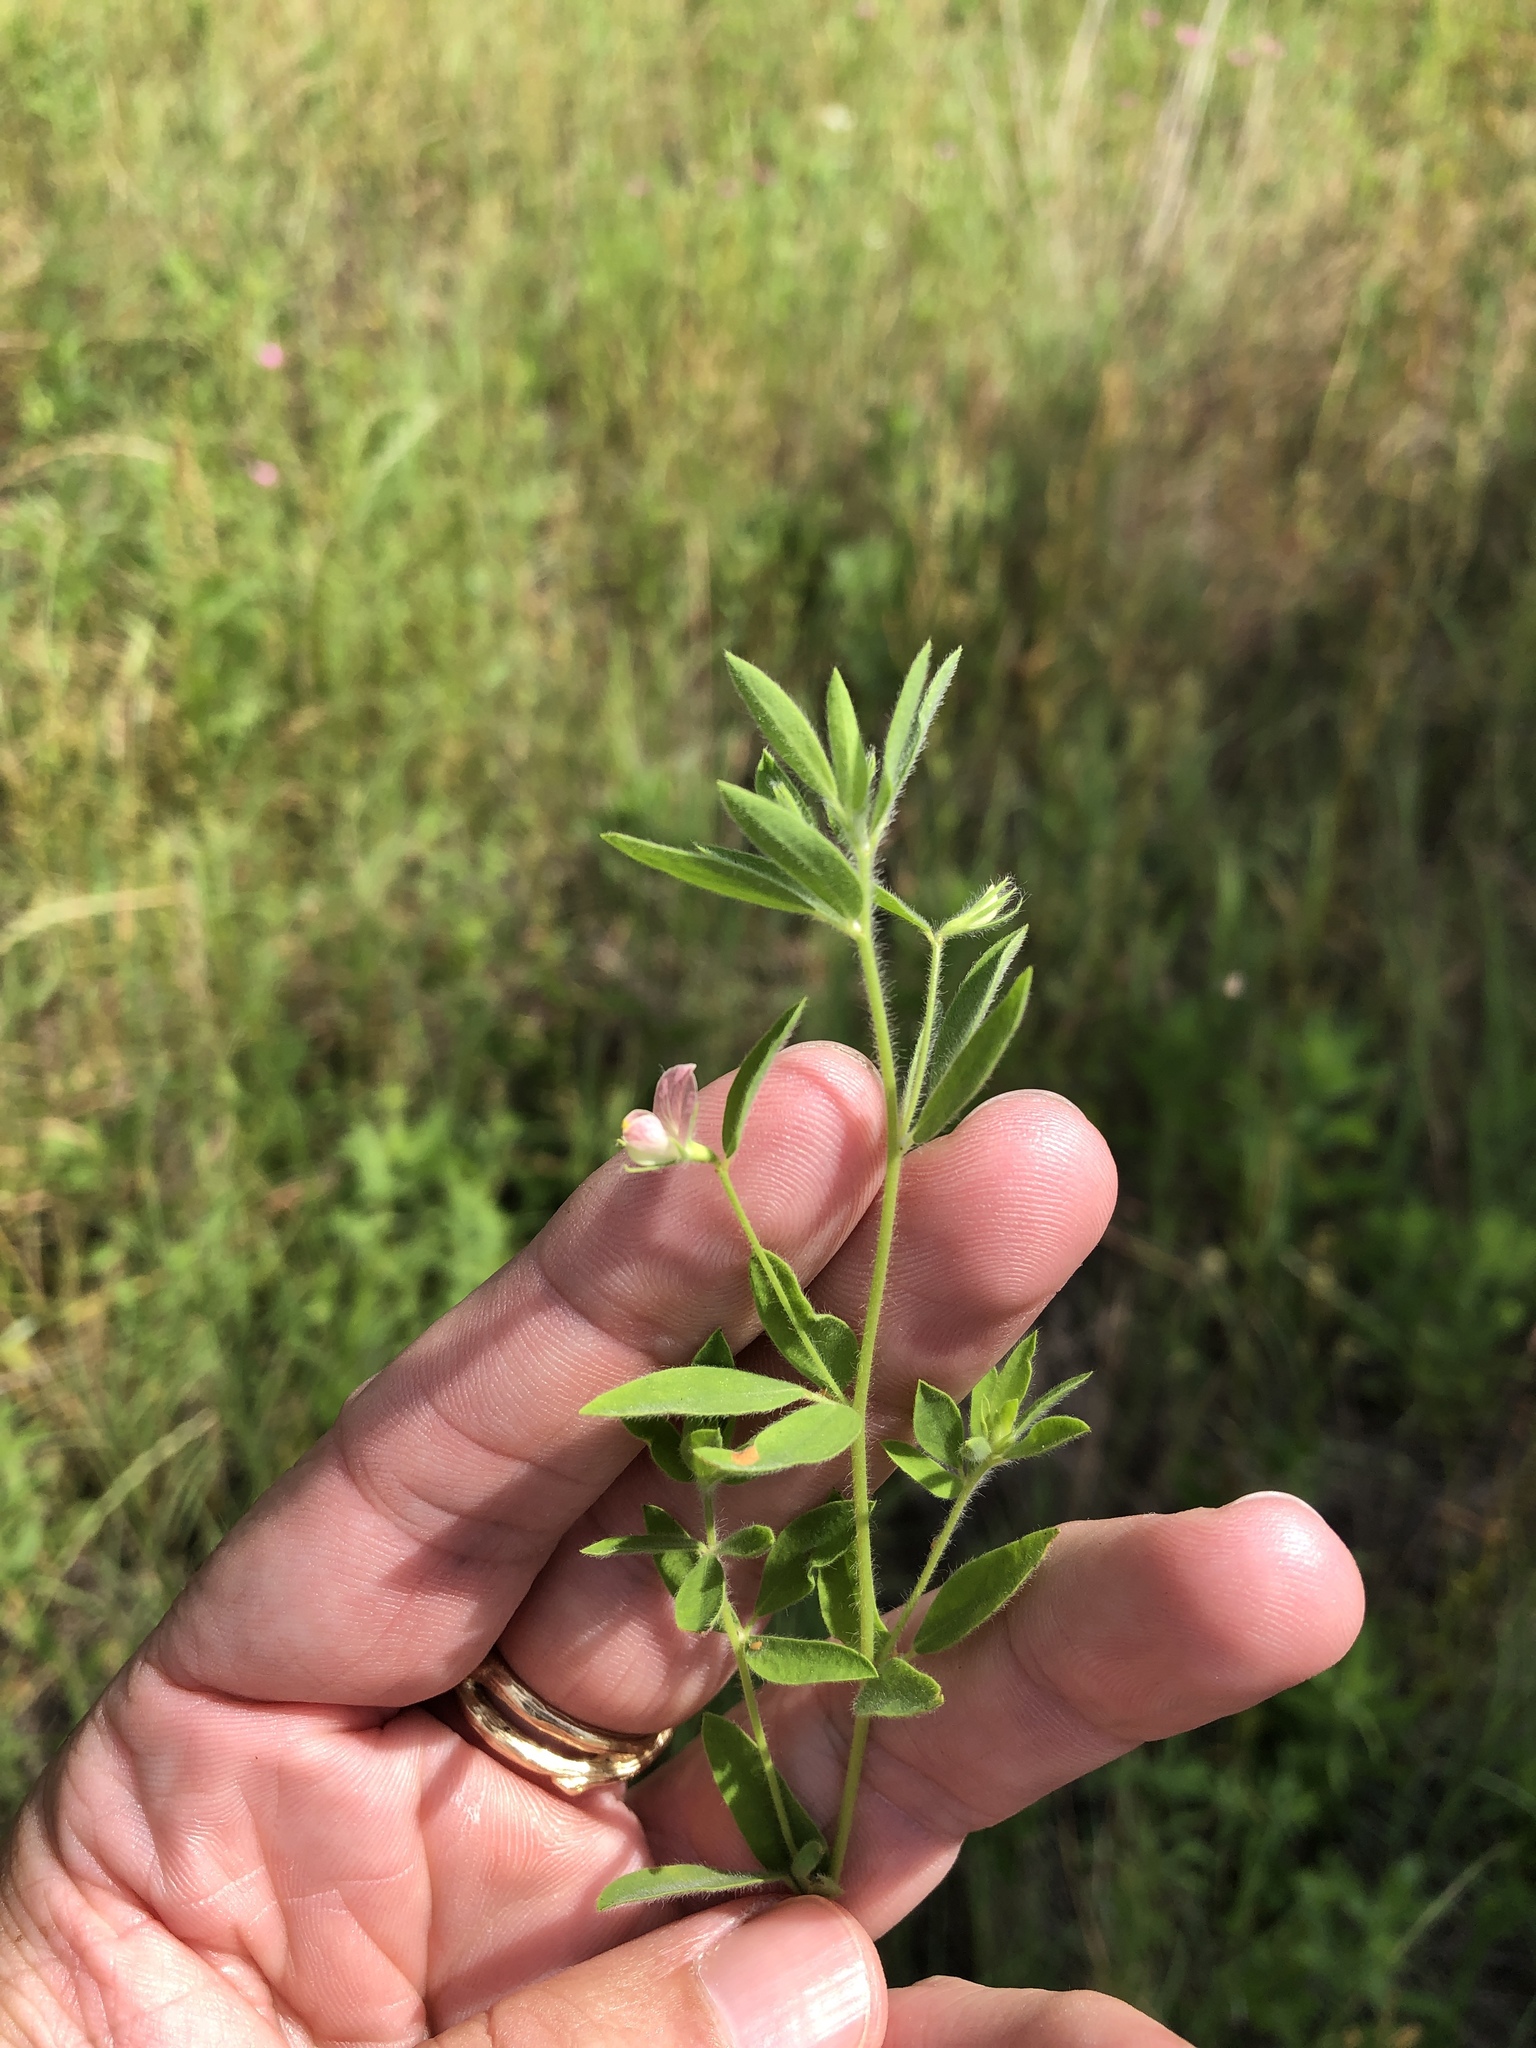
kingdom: Plantae
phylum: Tracheophyta
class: Magnoliopsida
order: Fabales
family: Fabaceae
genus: Acmispon
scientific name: Acmispon americanus
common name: American bird's-foot trefoil
